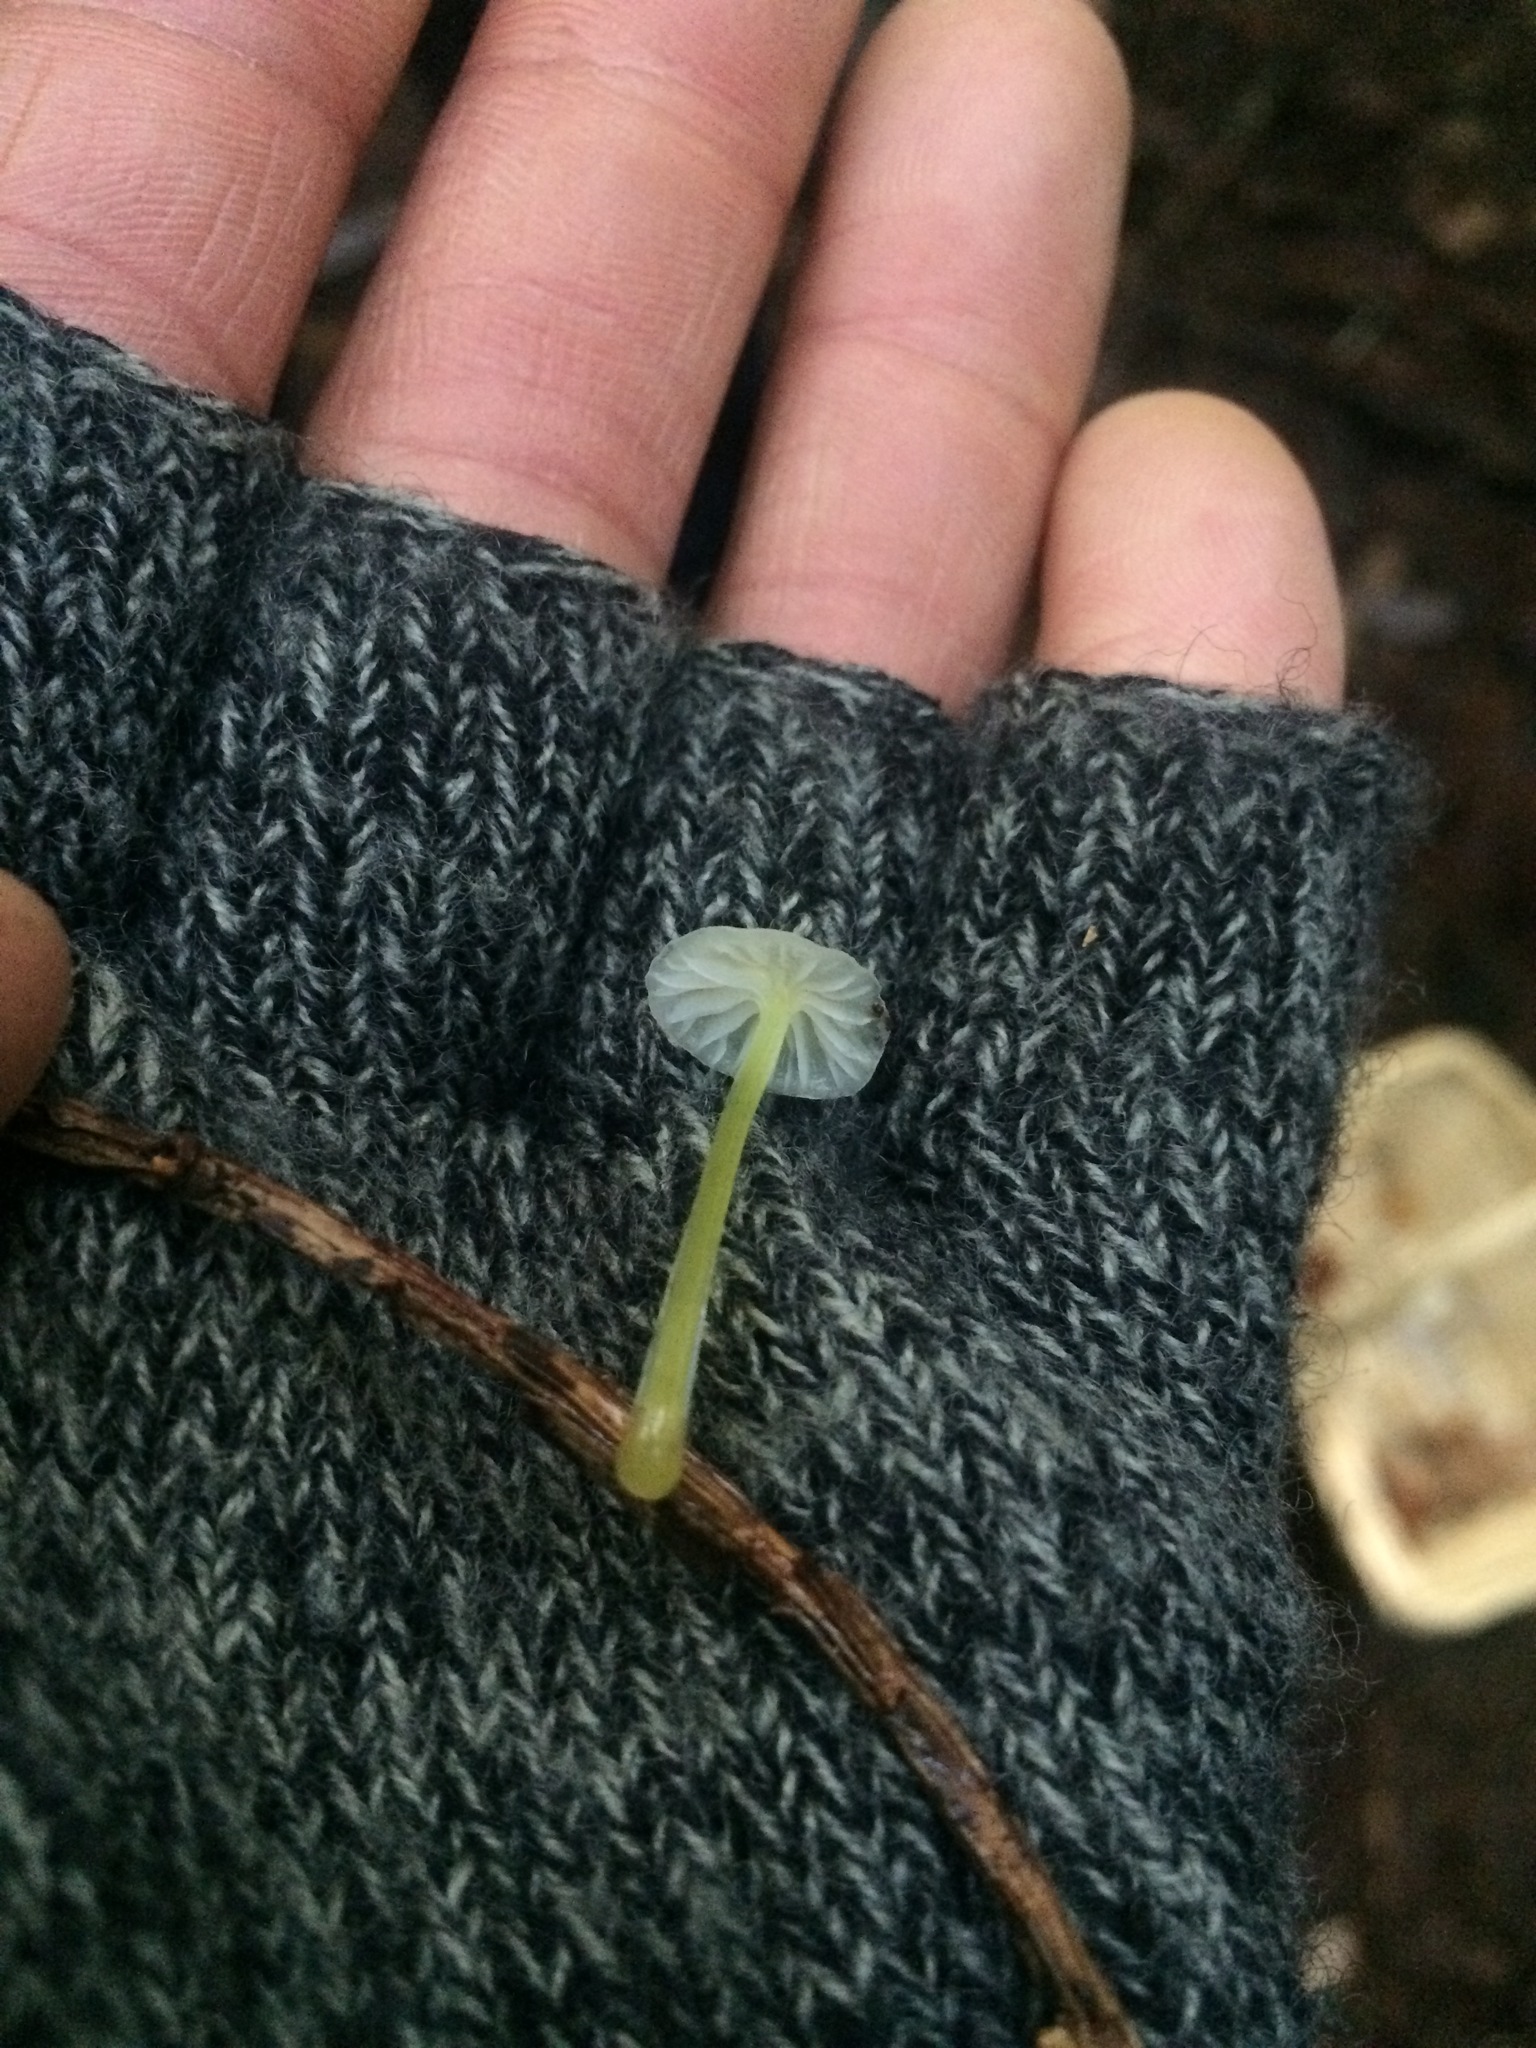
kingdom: Fungi
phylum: Basidiomycota
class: Agaricomycetes
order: Agaricales
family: Mycenaceae
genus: Mycena
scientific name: Mycena epipterygia
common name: Yellowleg bonnet
